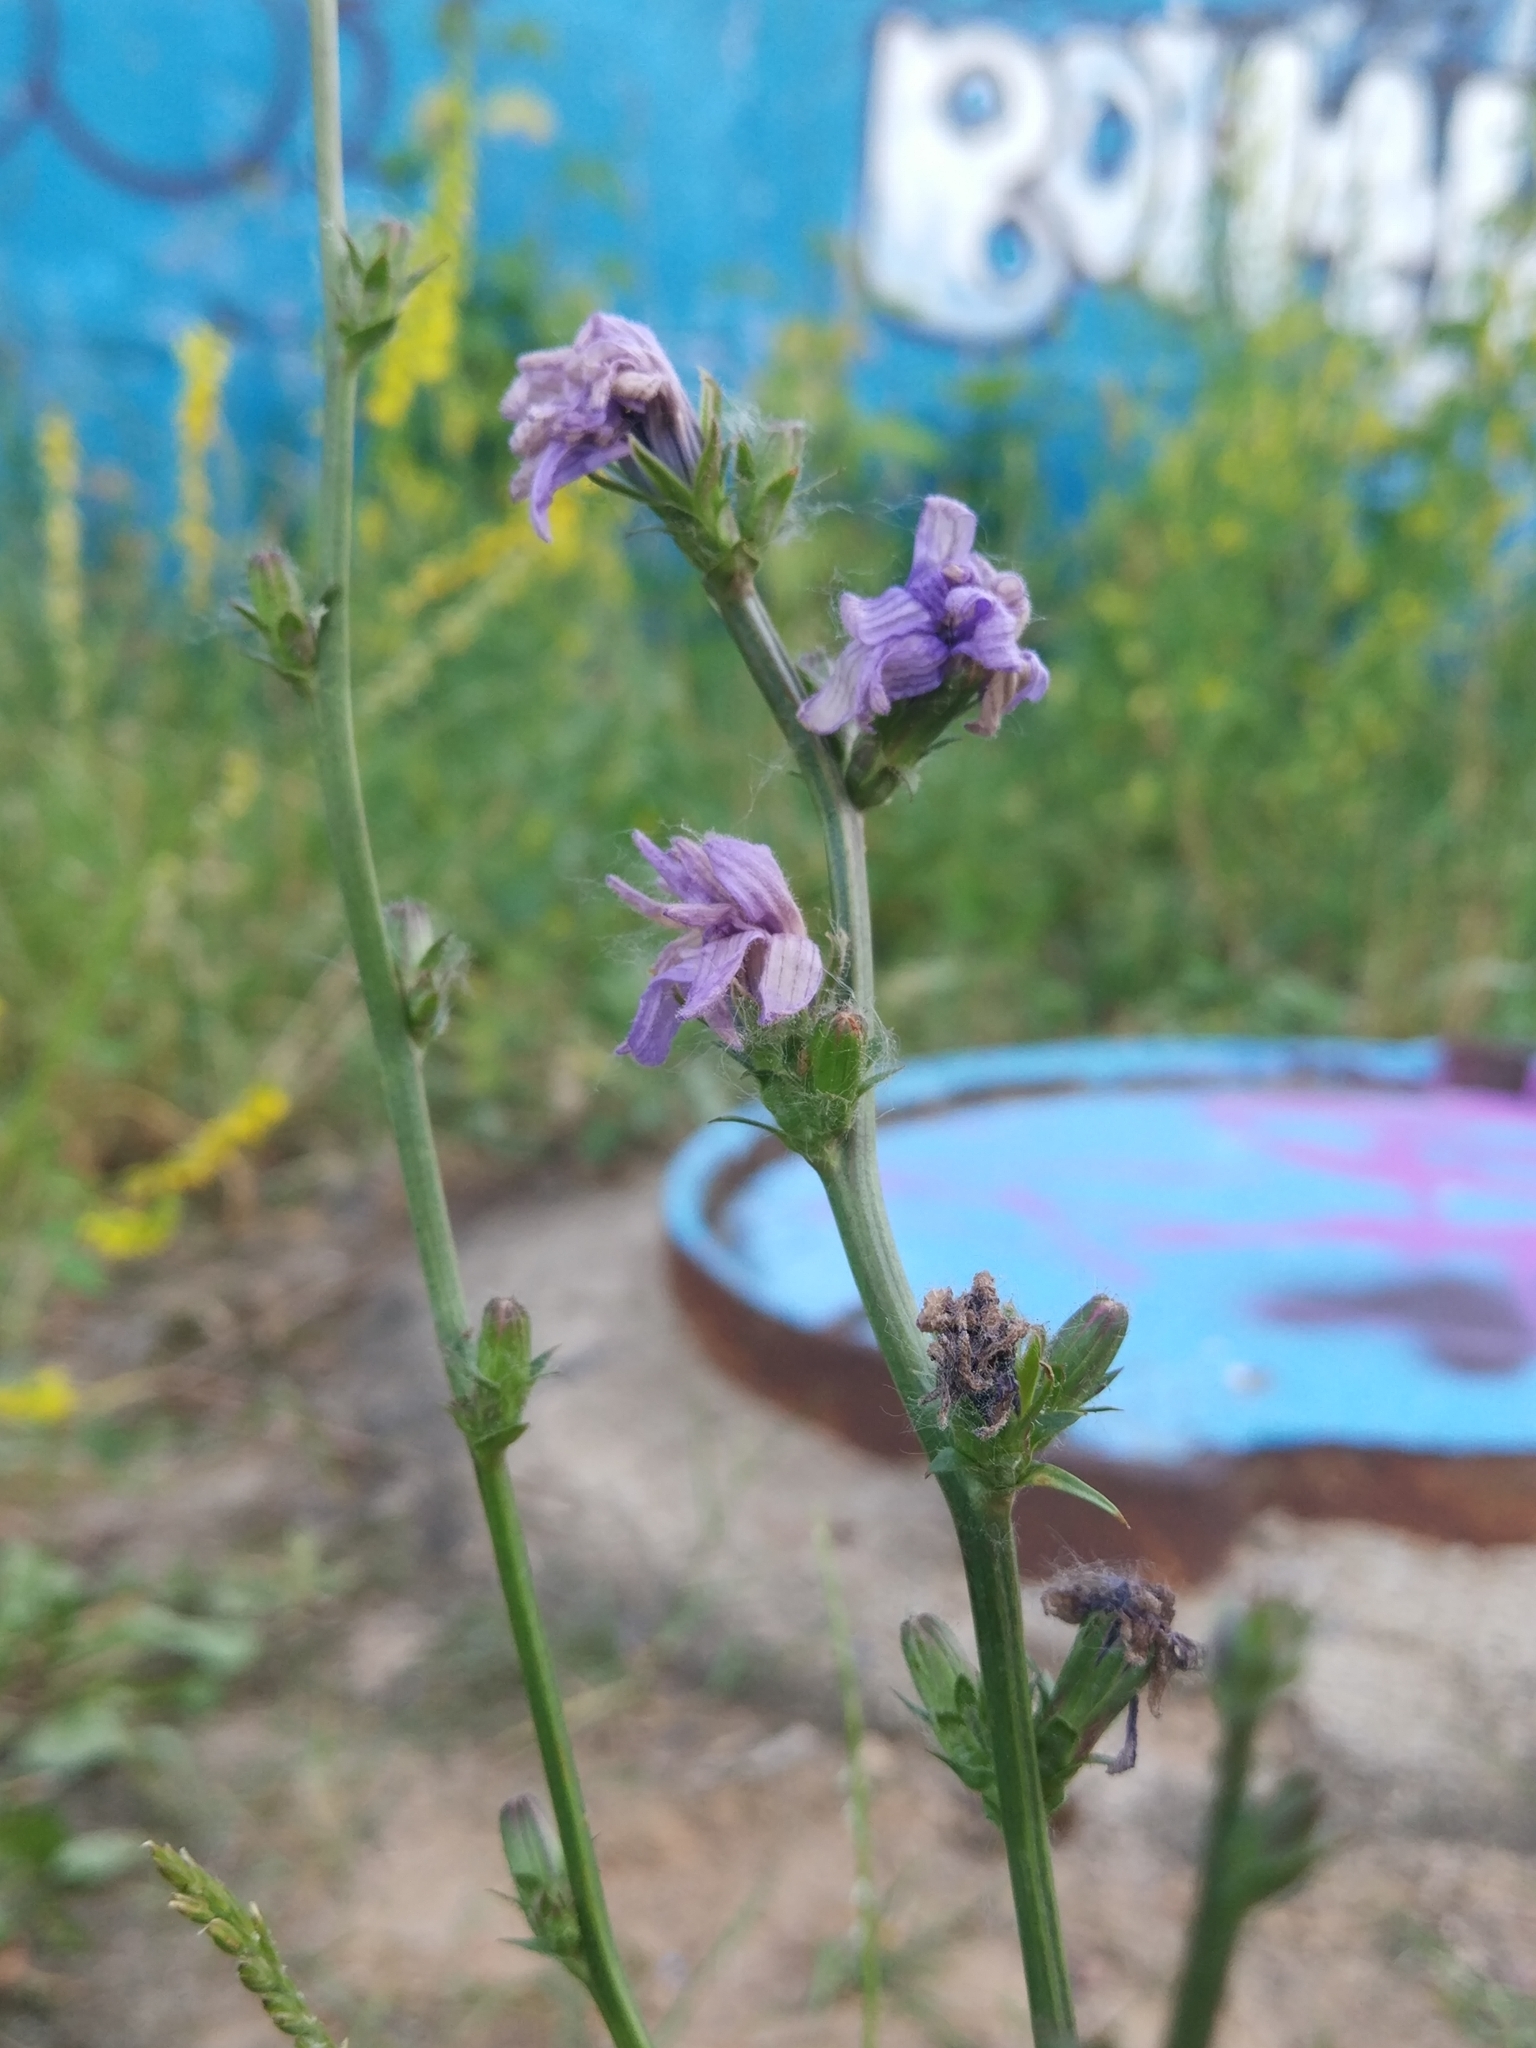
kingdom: Plantae
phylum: Tracheophyta
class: Magnoliopsida
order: Asterales
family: Asteraceae
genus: Cichorium
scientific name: Cichorium intybus
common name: Chicory
